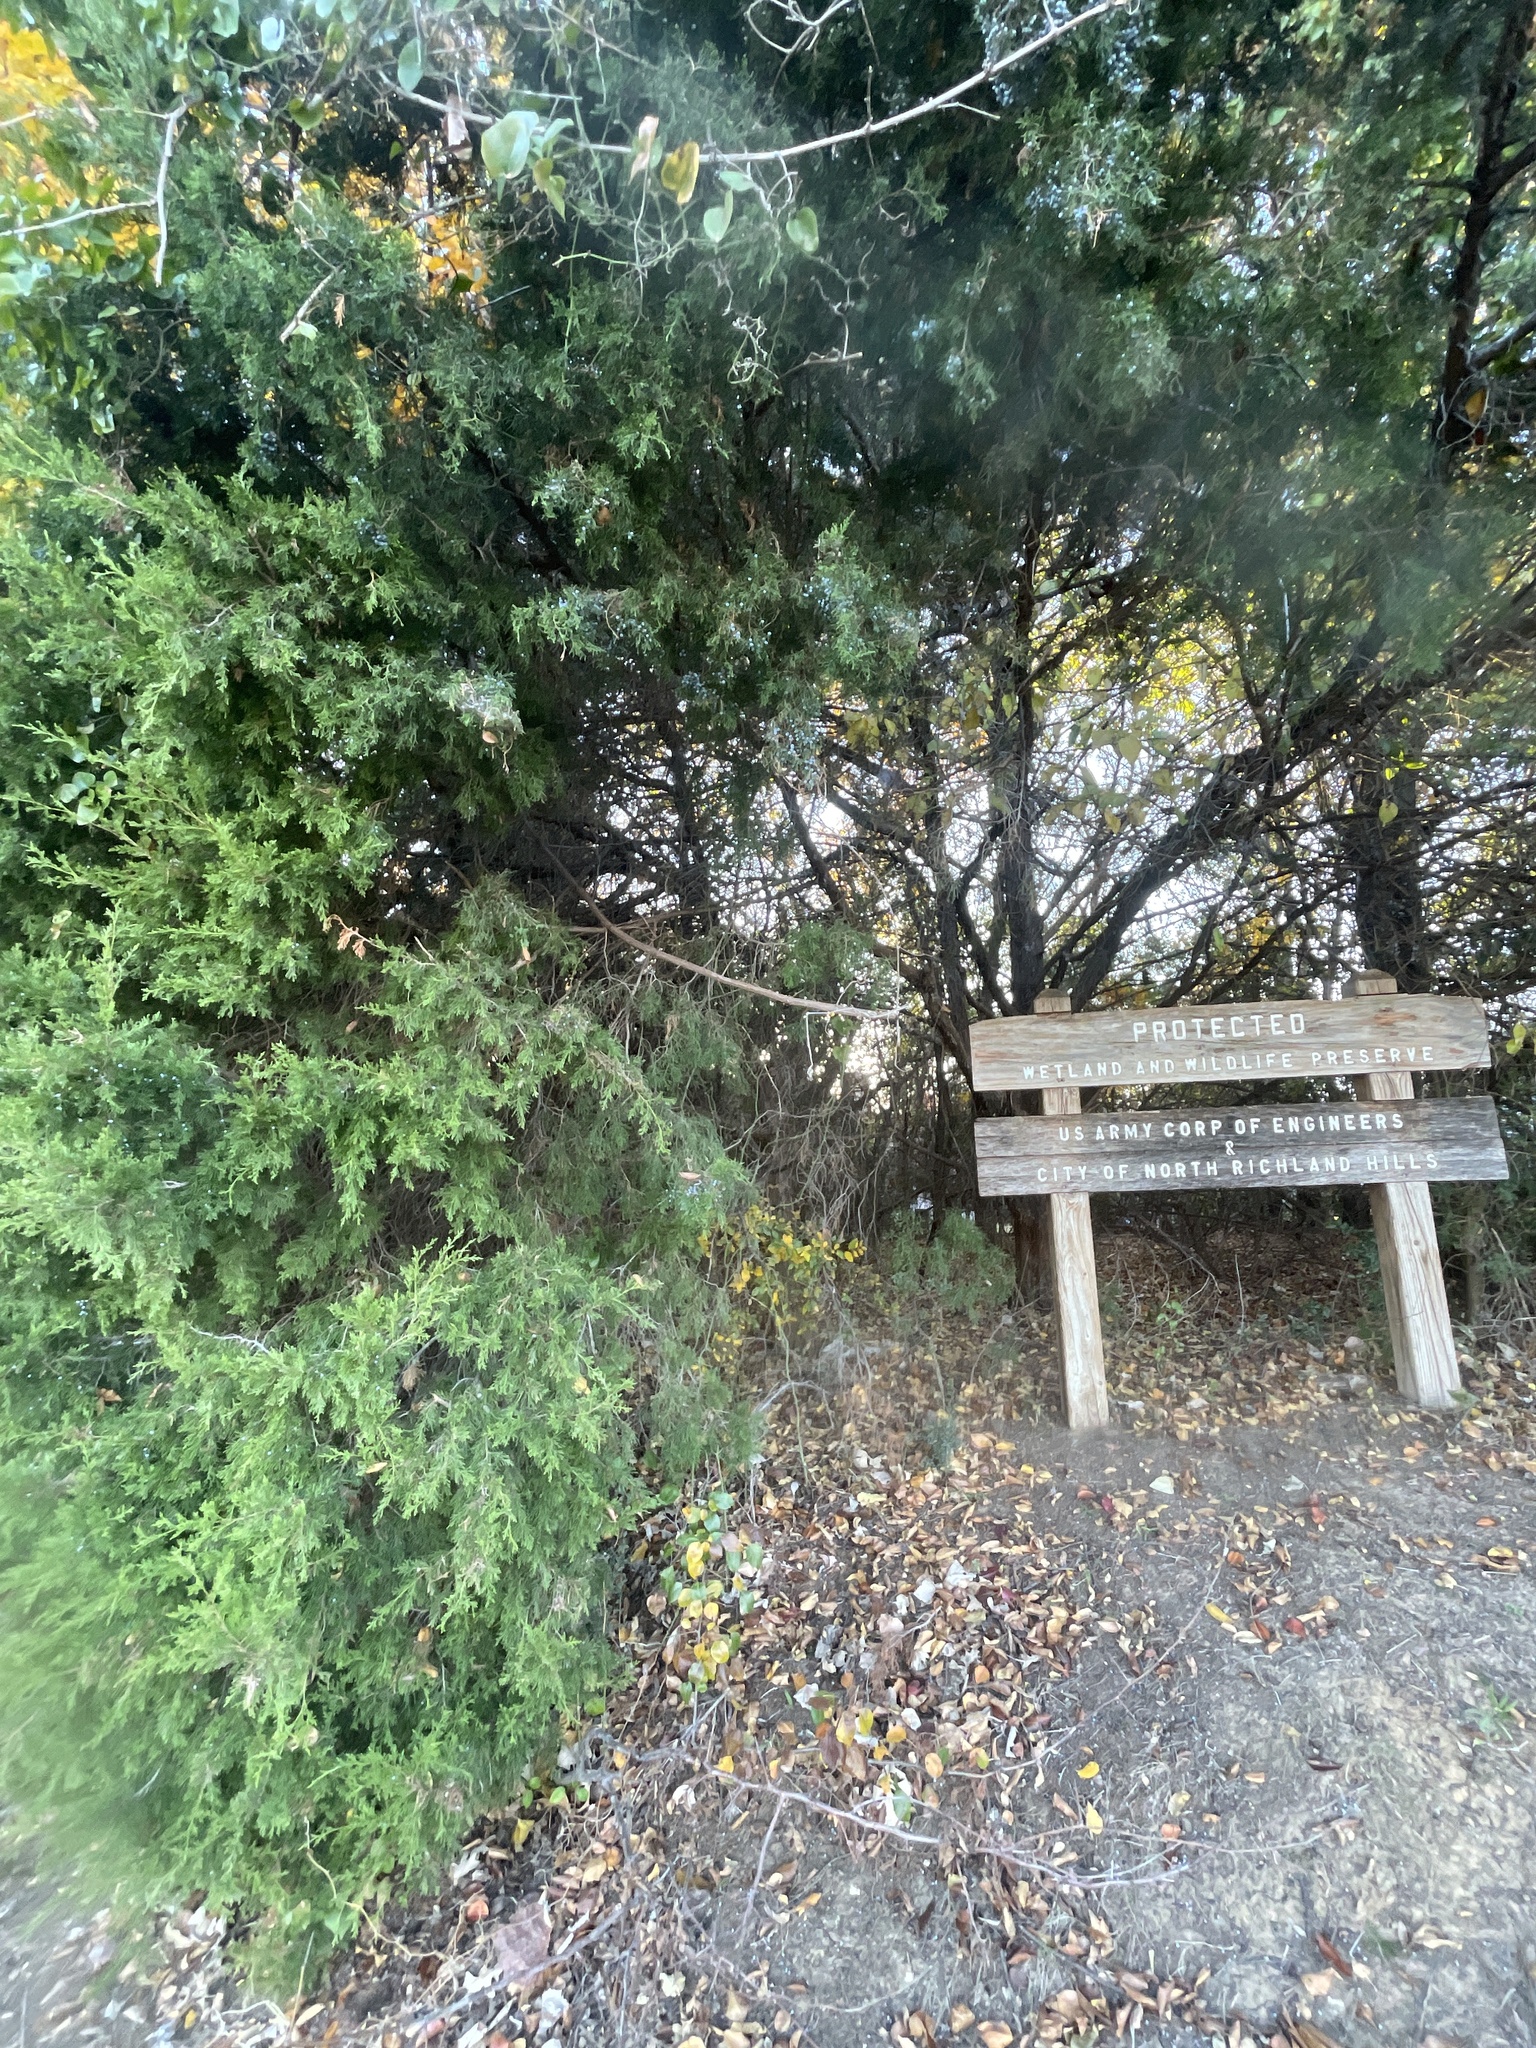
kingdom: Plantae
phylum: Tracheophyta
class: Pinopsida
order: Pinales
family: Cupressaceae
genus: Juniperus
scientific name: Juniperus virginiana
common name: Red juniper
